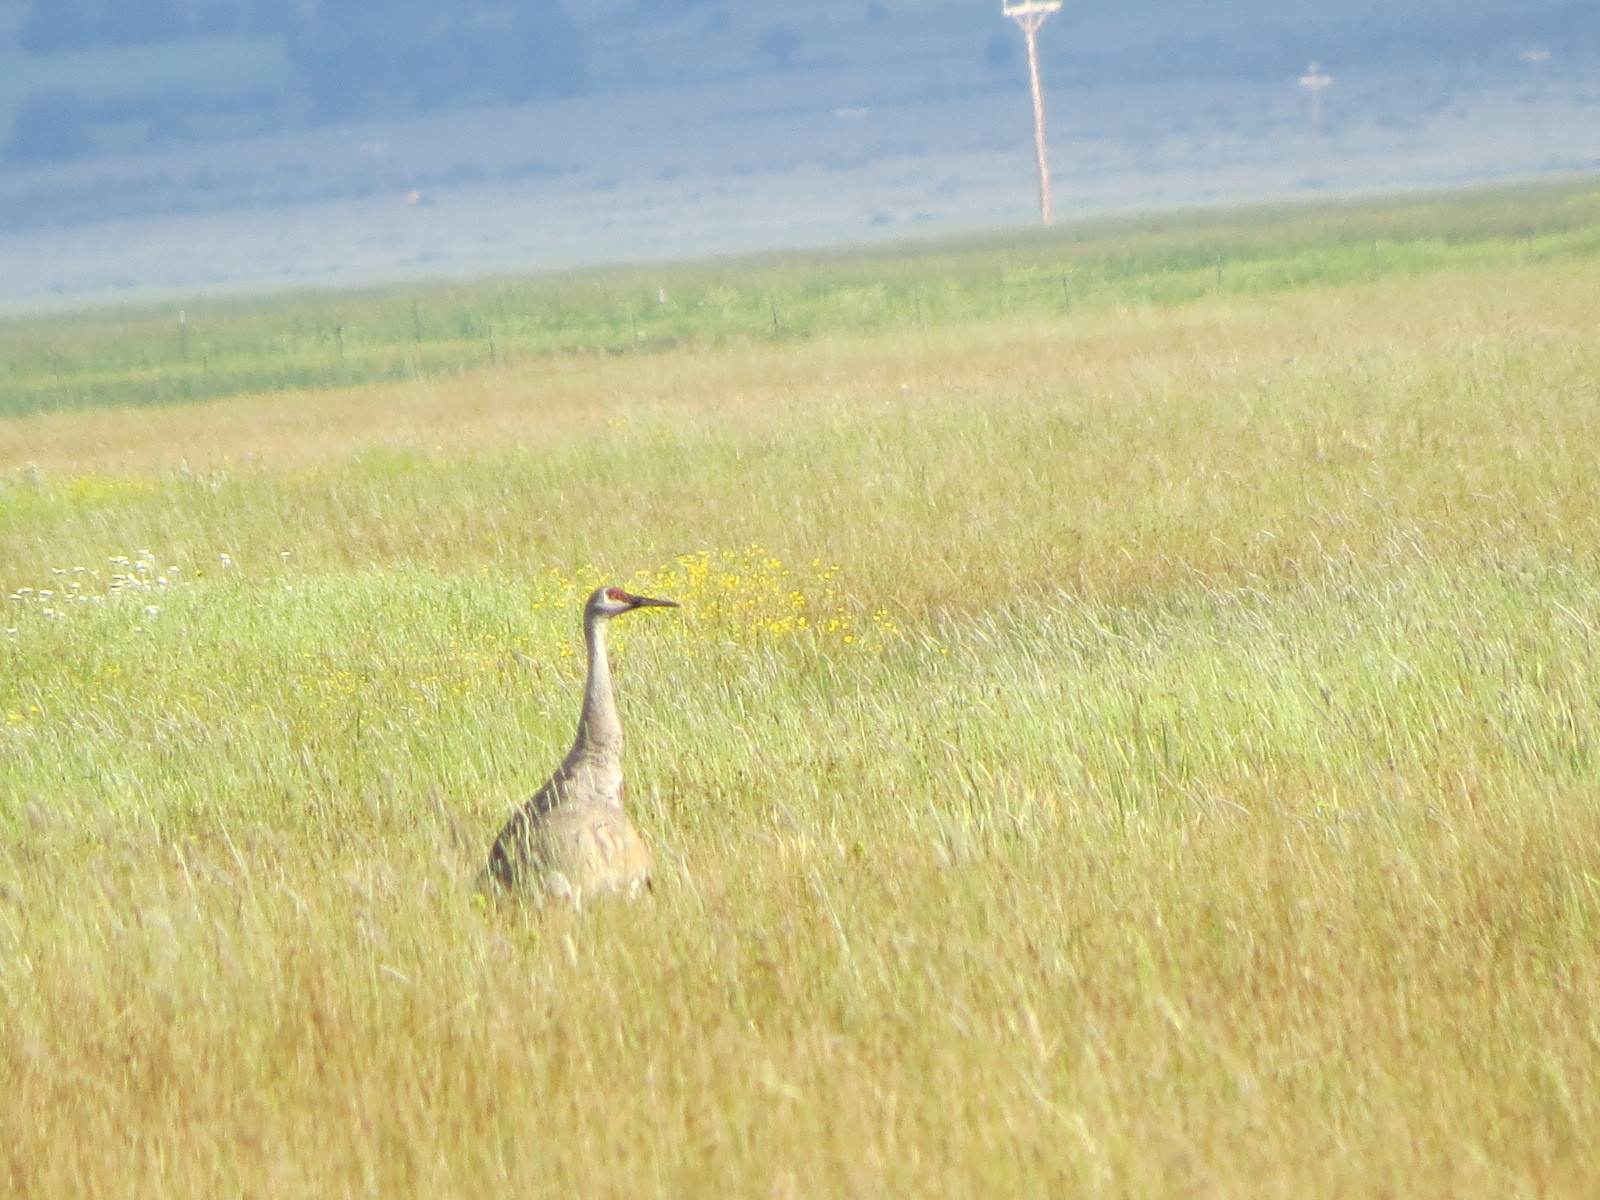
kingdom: Animalia
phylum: Chordata
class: Aves
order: Gruiformes
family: Gruidae
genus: Grus
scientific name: Grus canadensis
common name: Sandhill crane
